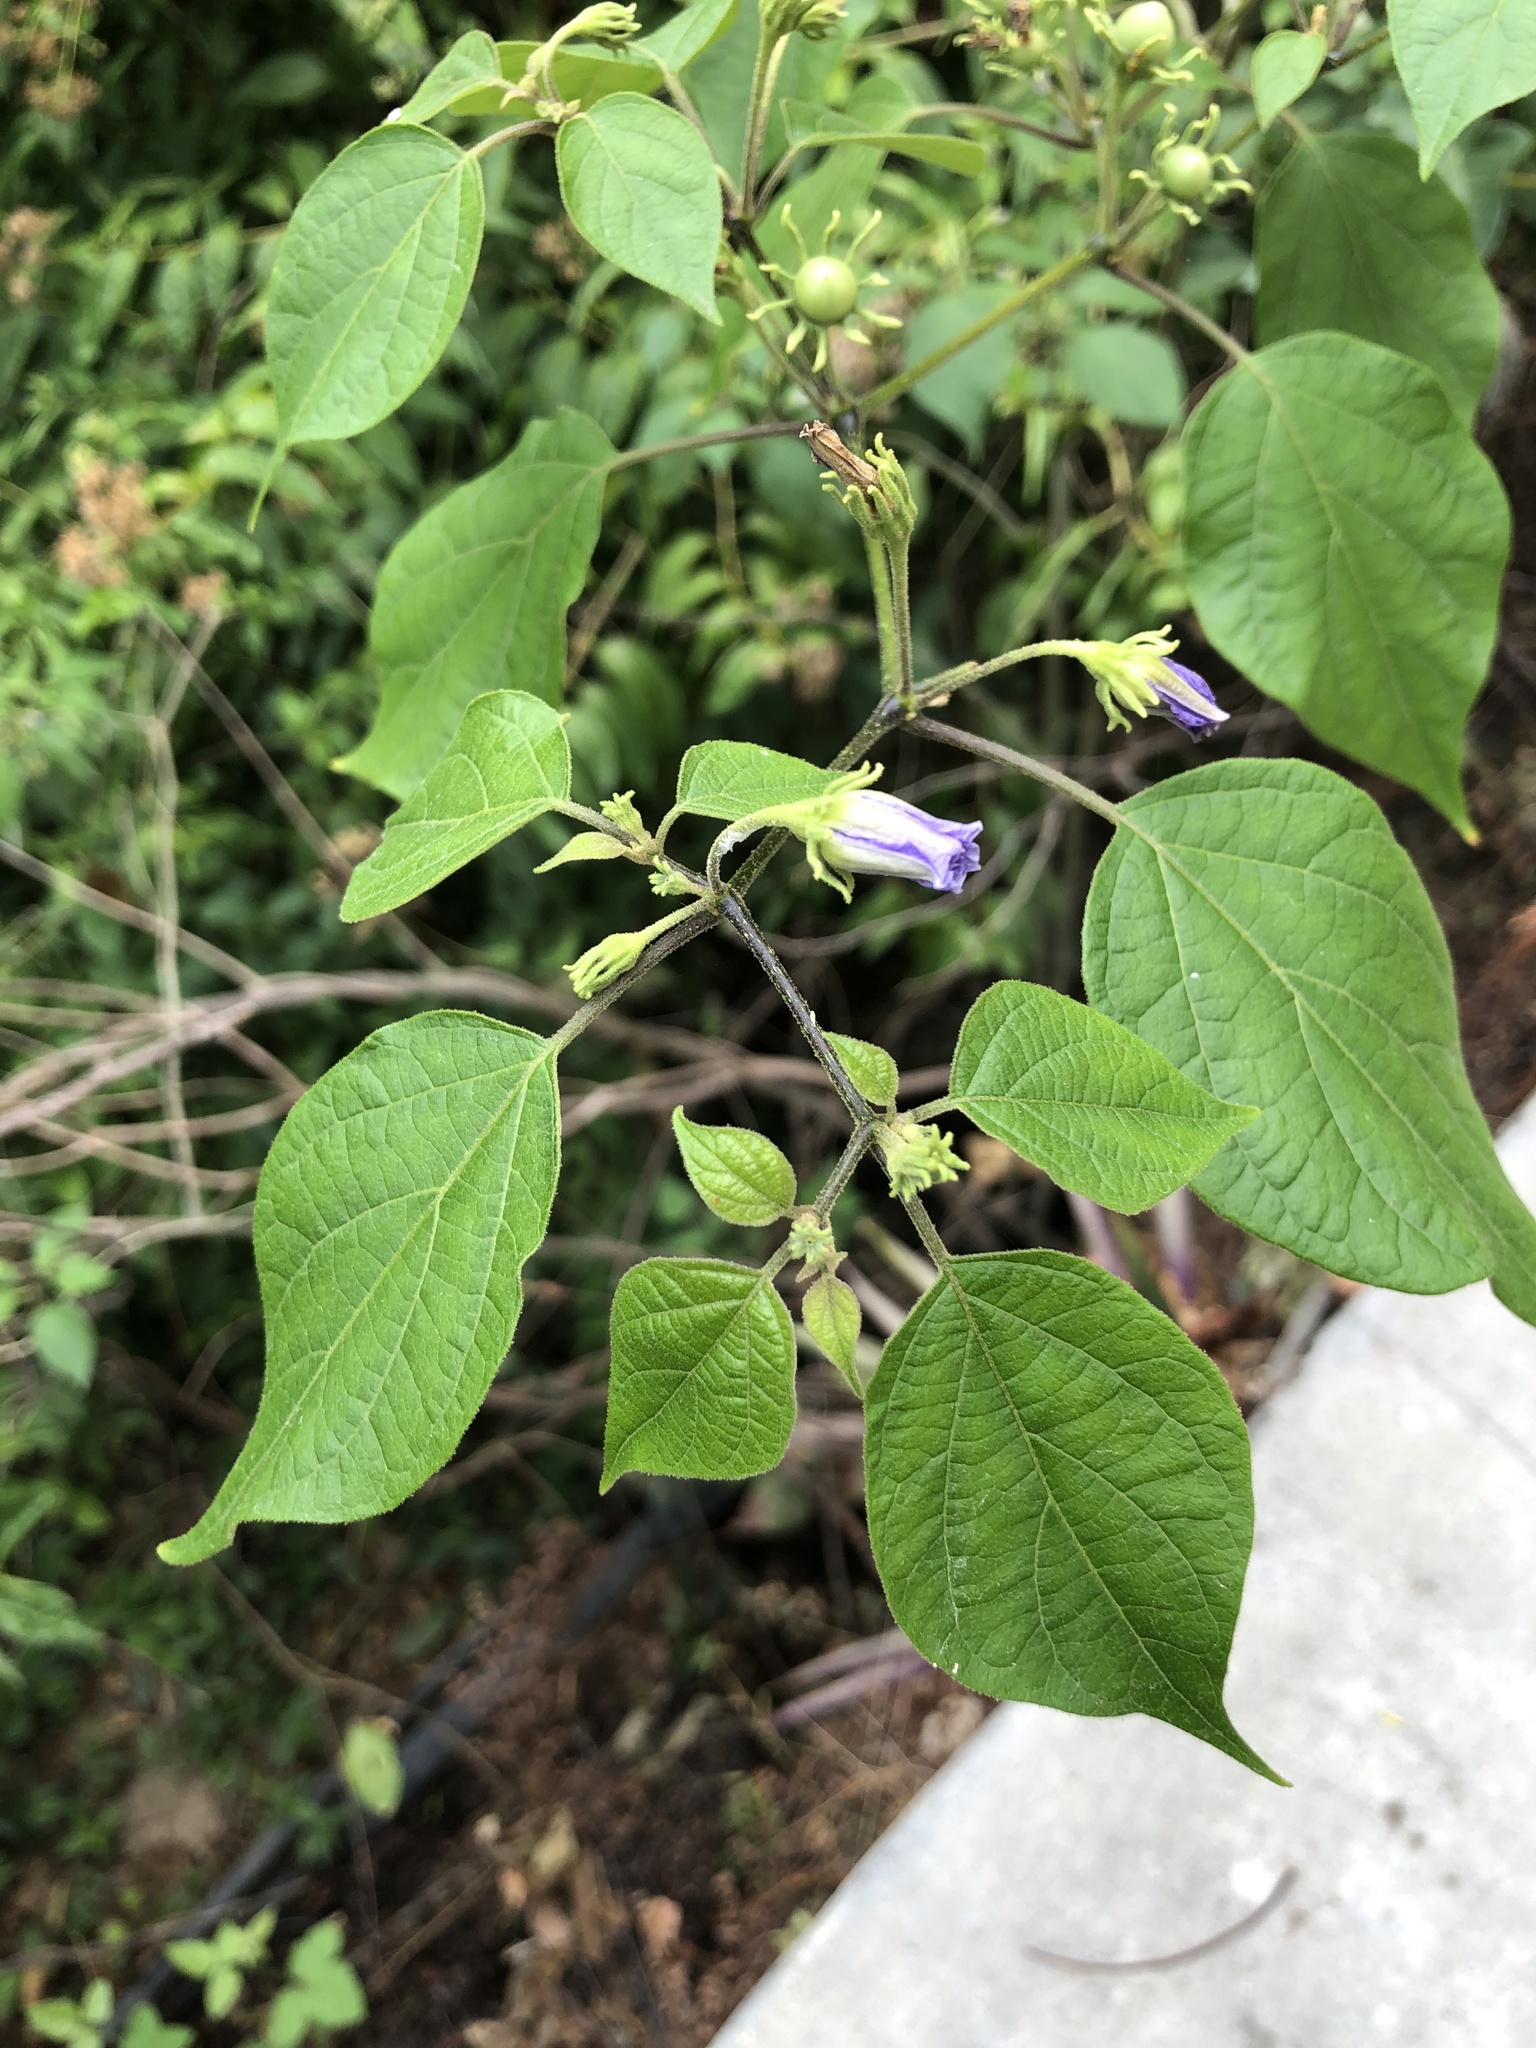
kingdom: Plantae
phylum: Tracheophyta
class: Magnoliopsida
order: Solanales
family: Solanaceae
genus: Lycianthes
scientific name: Lycianthes scandens
